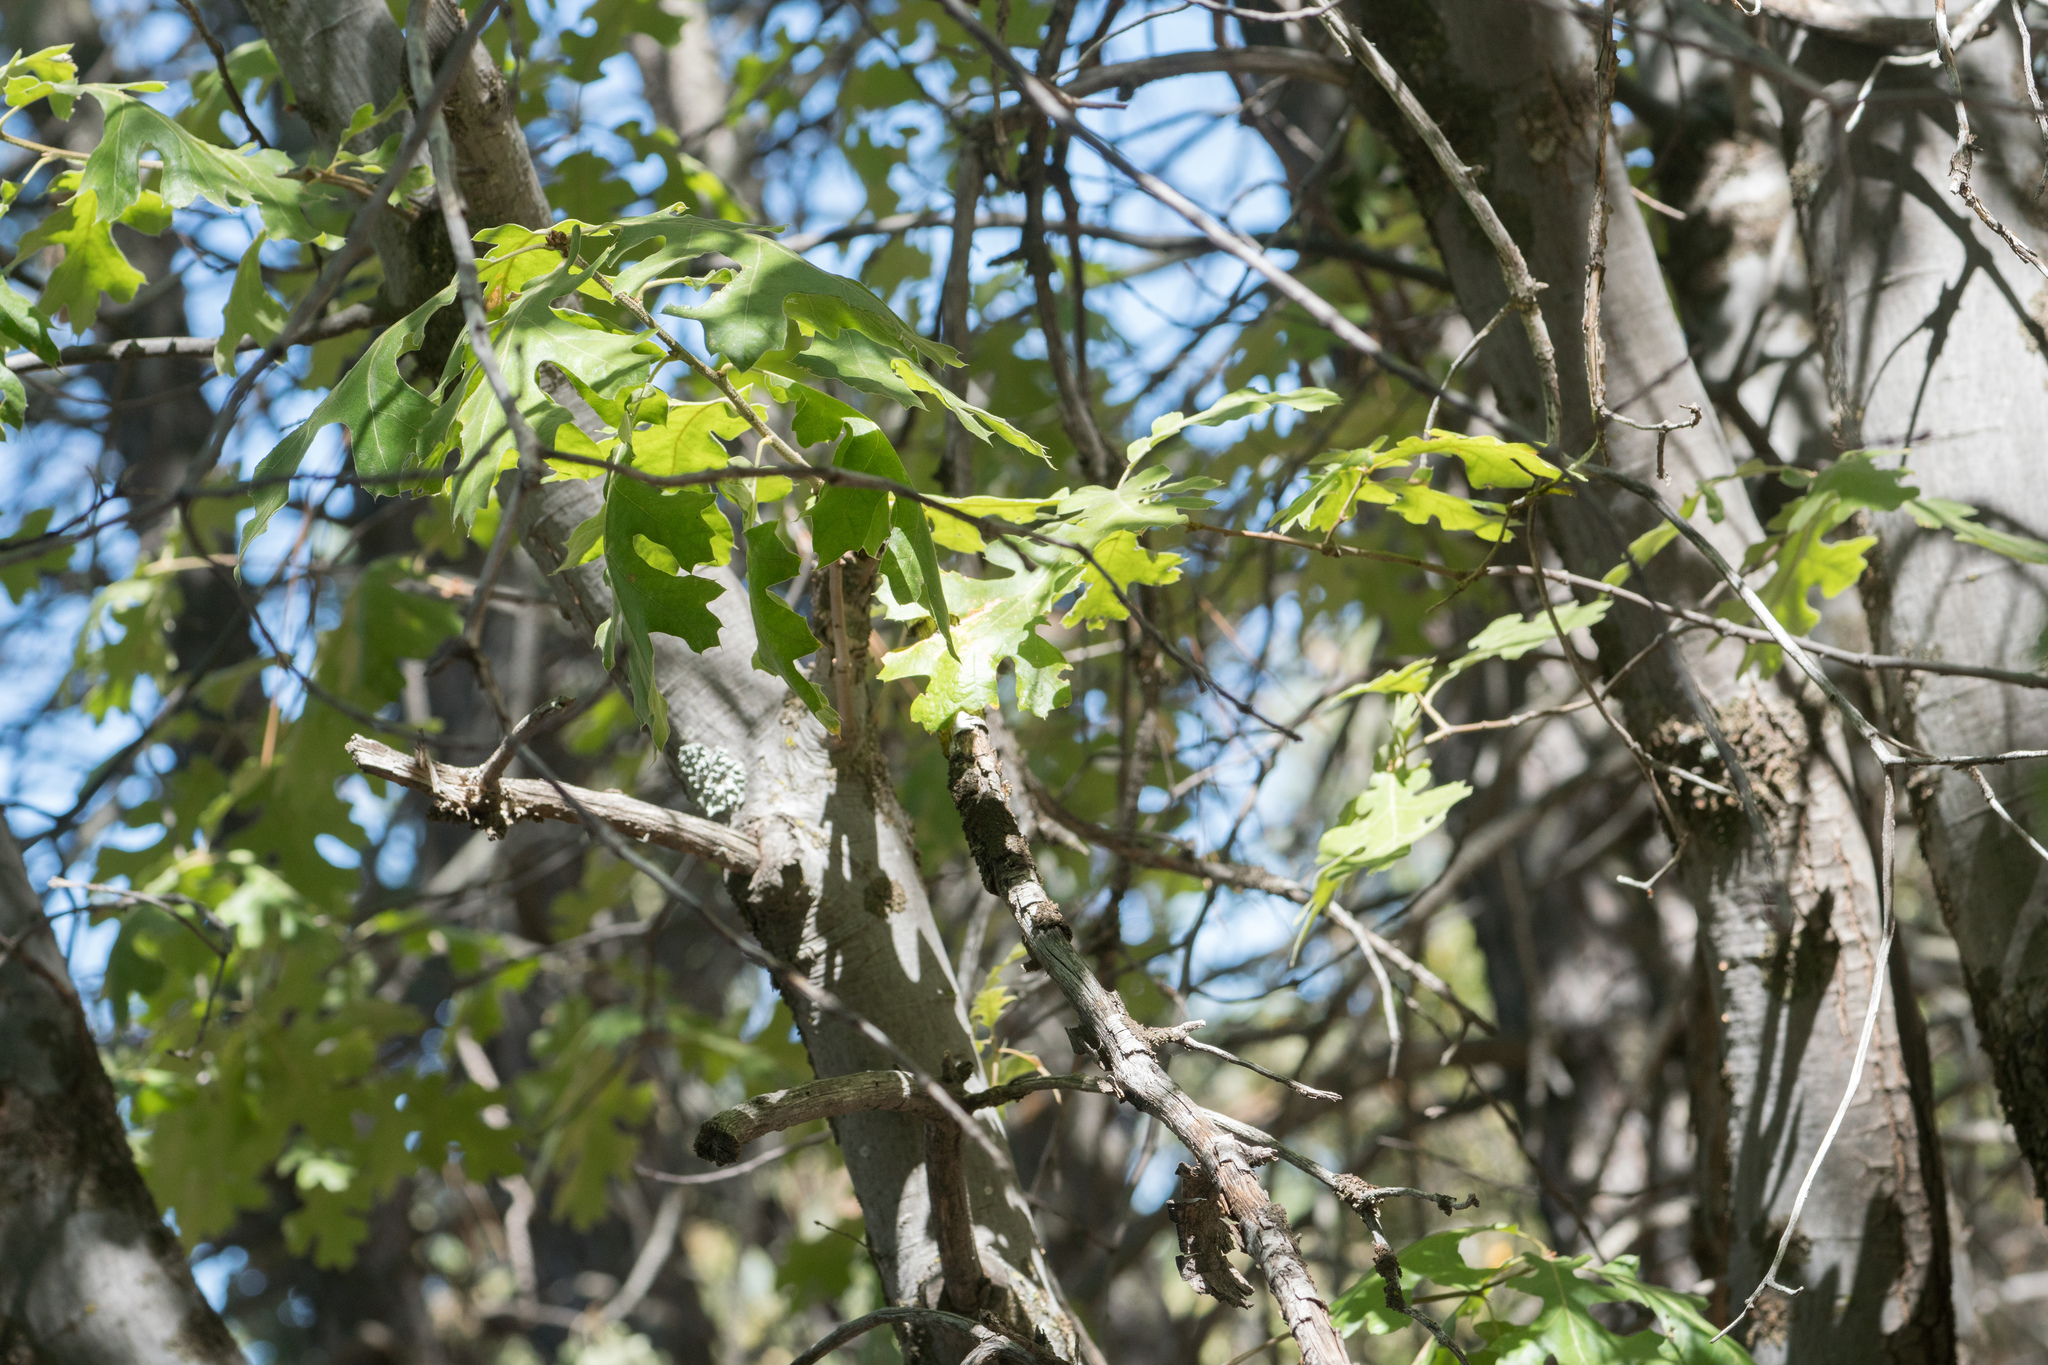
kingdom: Plantae
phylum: Tracheophyta
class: Magnoliopsida
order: Fagales
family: Fagaceae
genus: Quercus
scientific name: Quercus kelloggii
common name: California black oak
